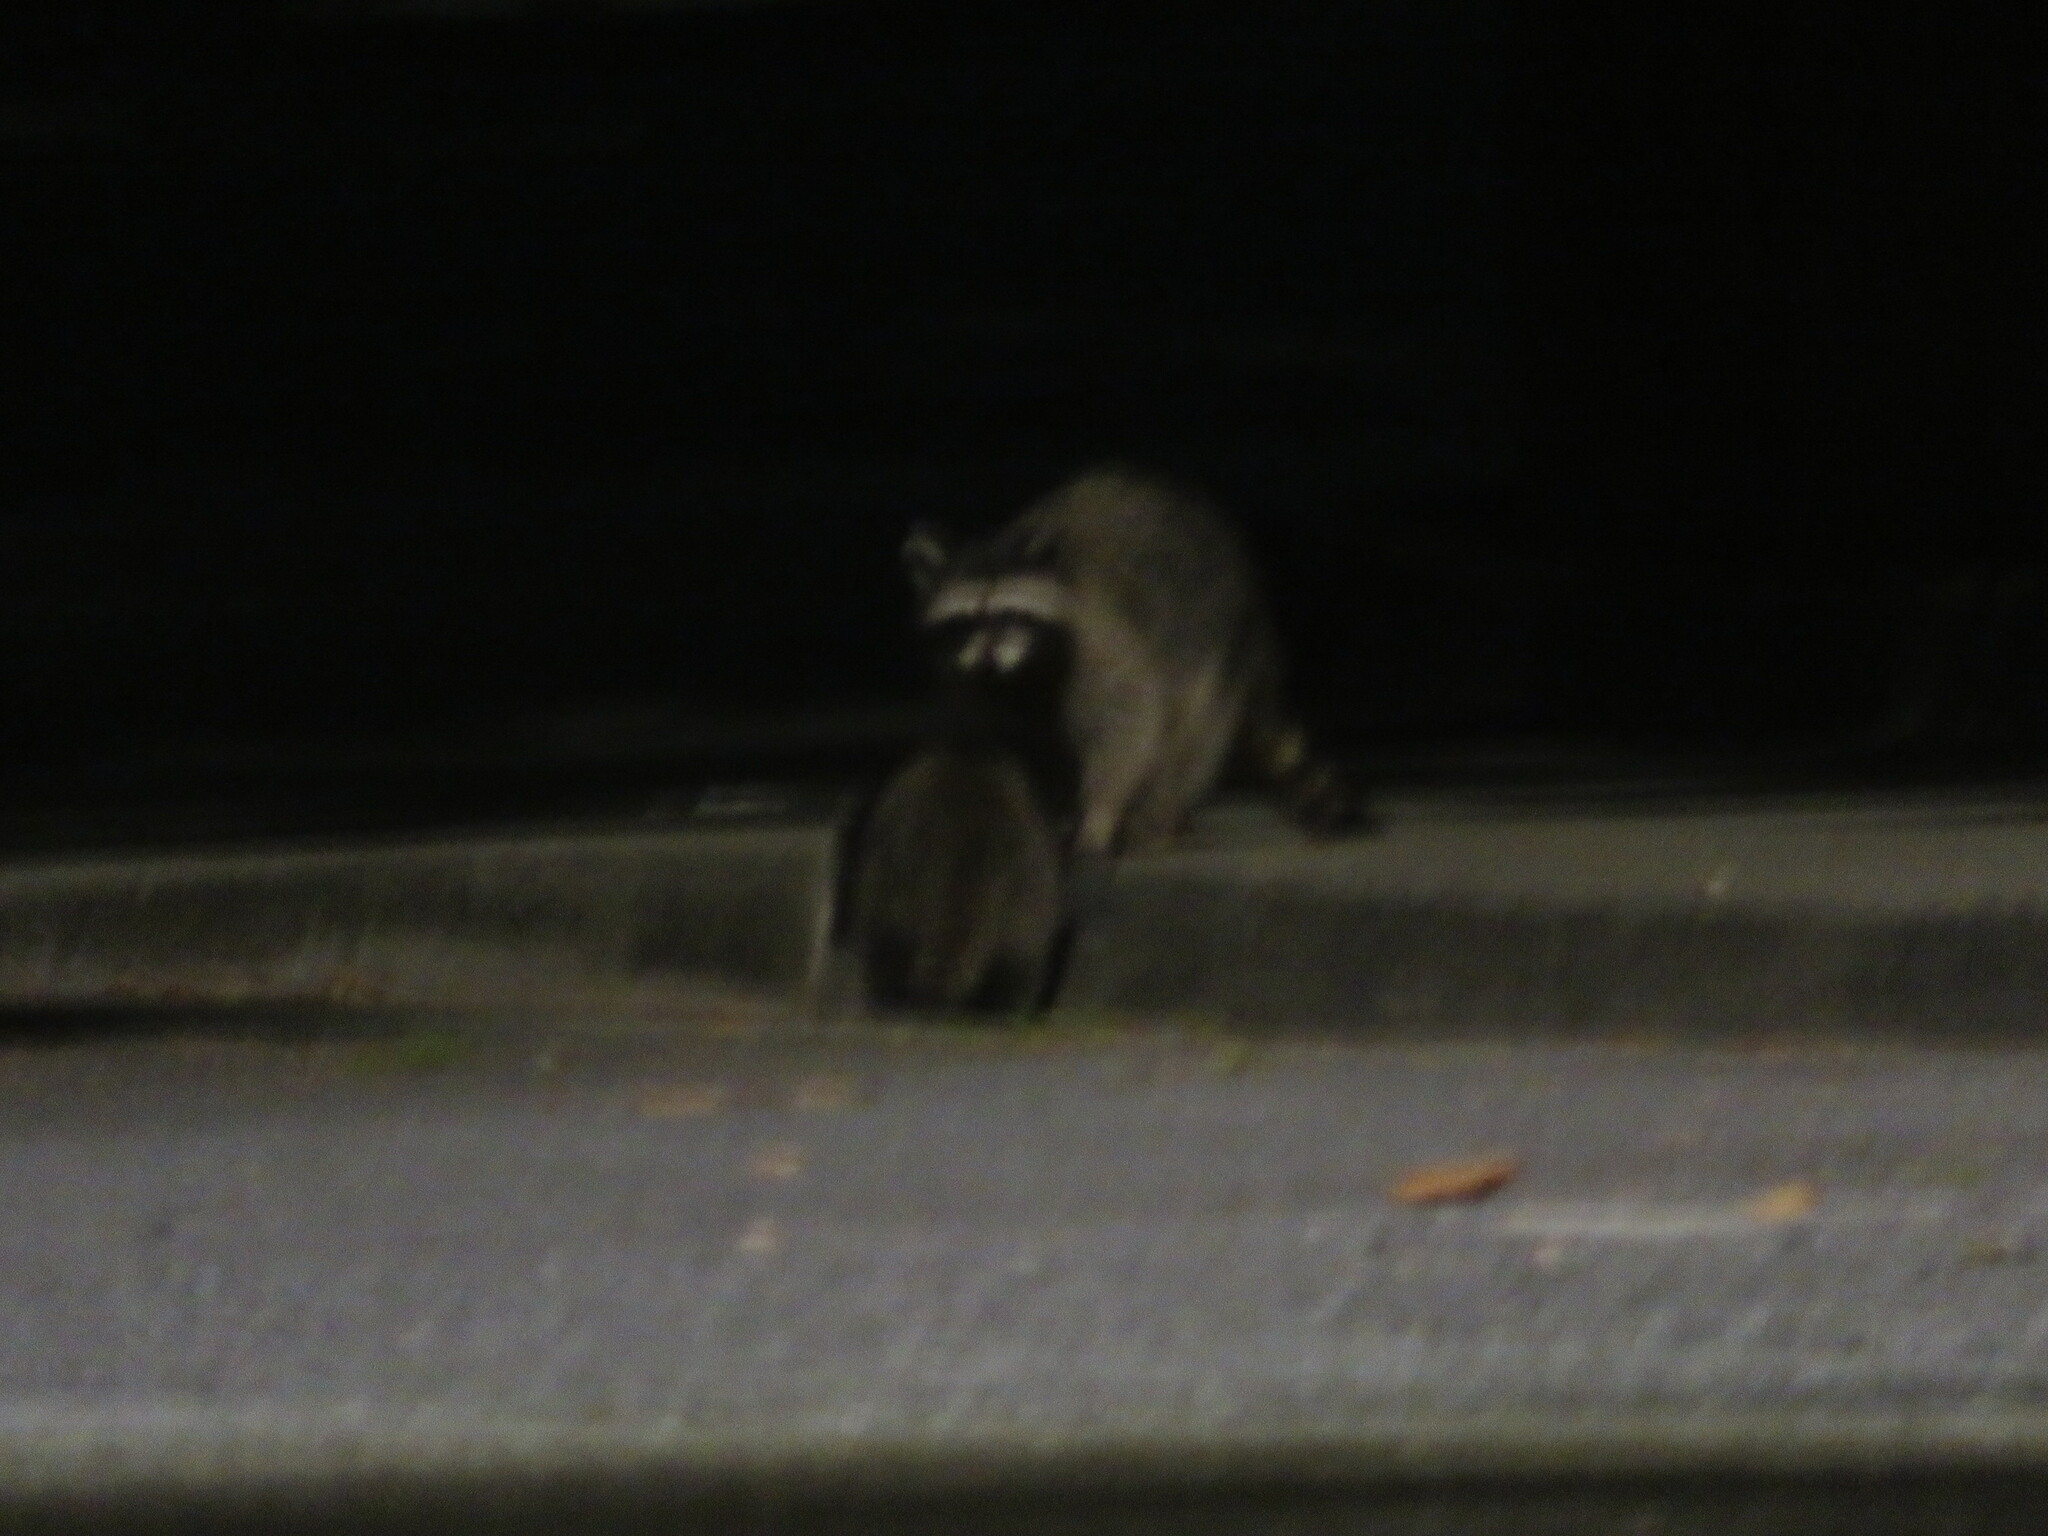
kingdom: Animalia
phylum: Chordata
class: Mammalia
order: Carnivora
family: Procyonidae
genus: Procyon
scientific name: Procyon lotor
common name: Raccoon
